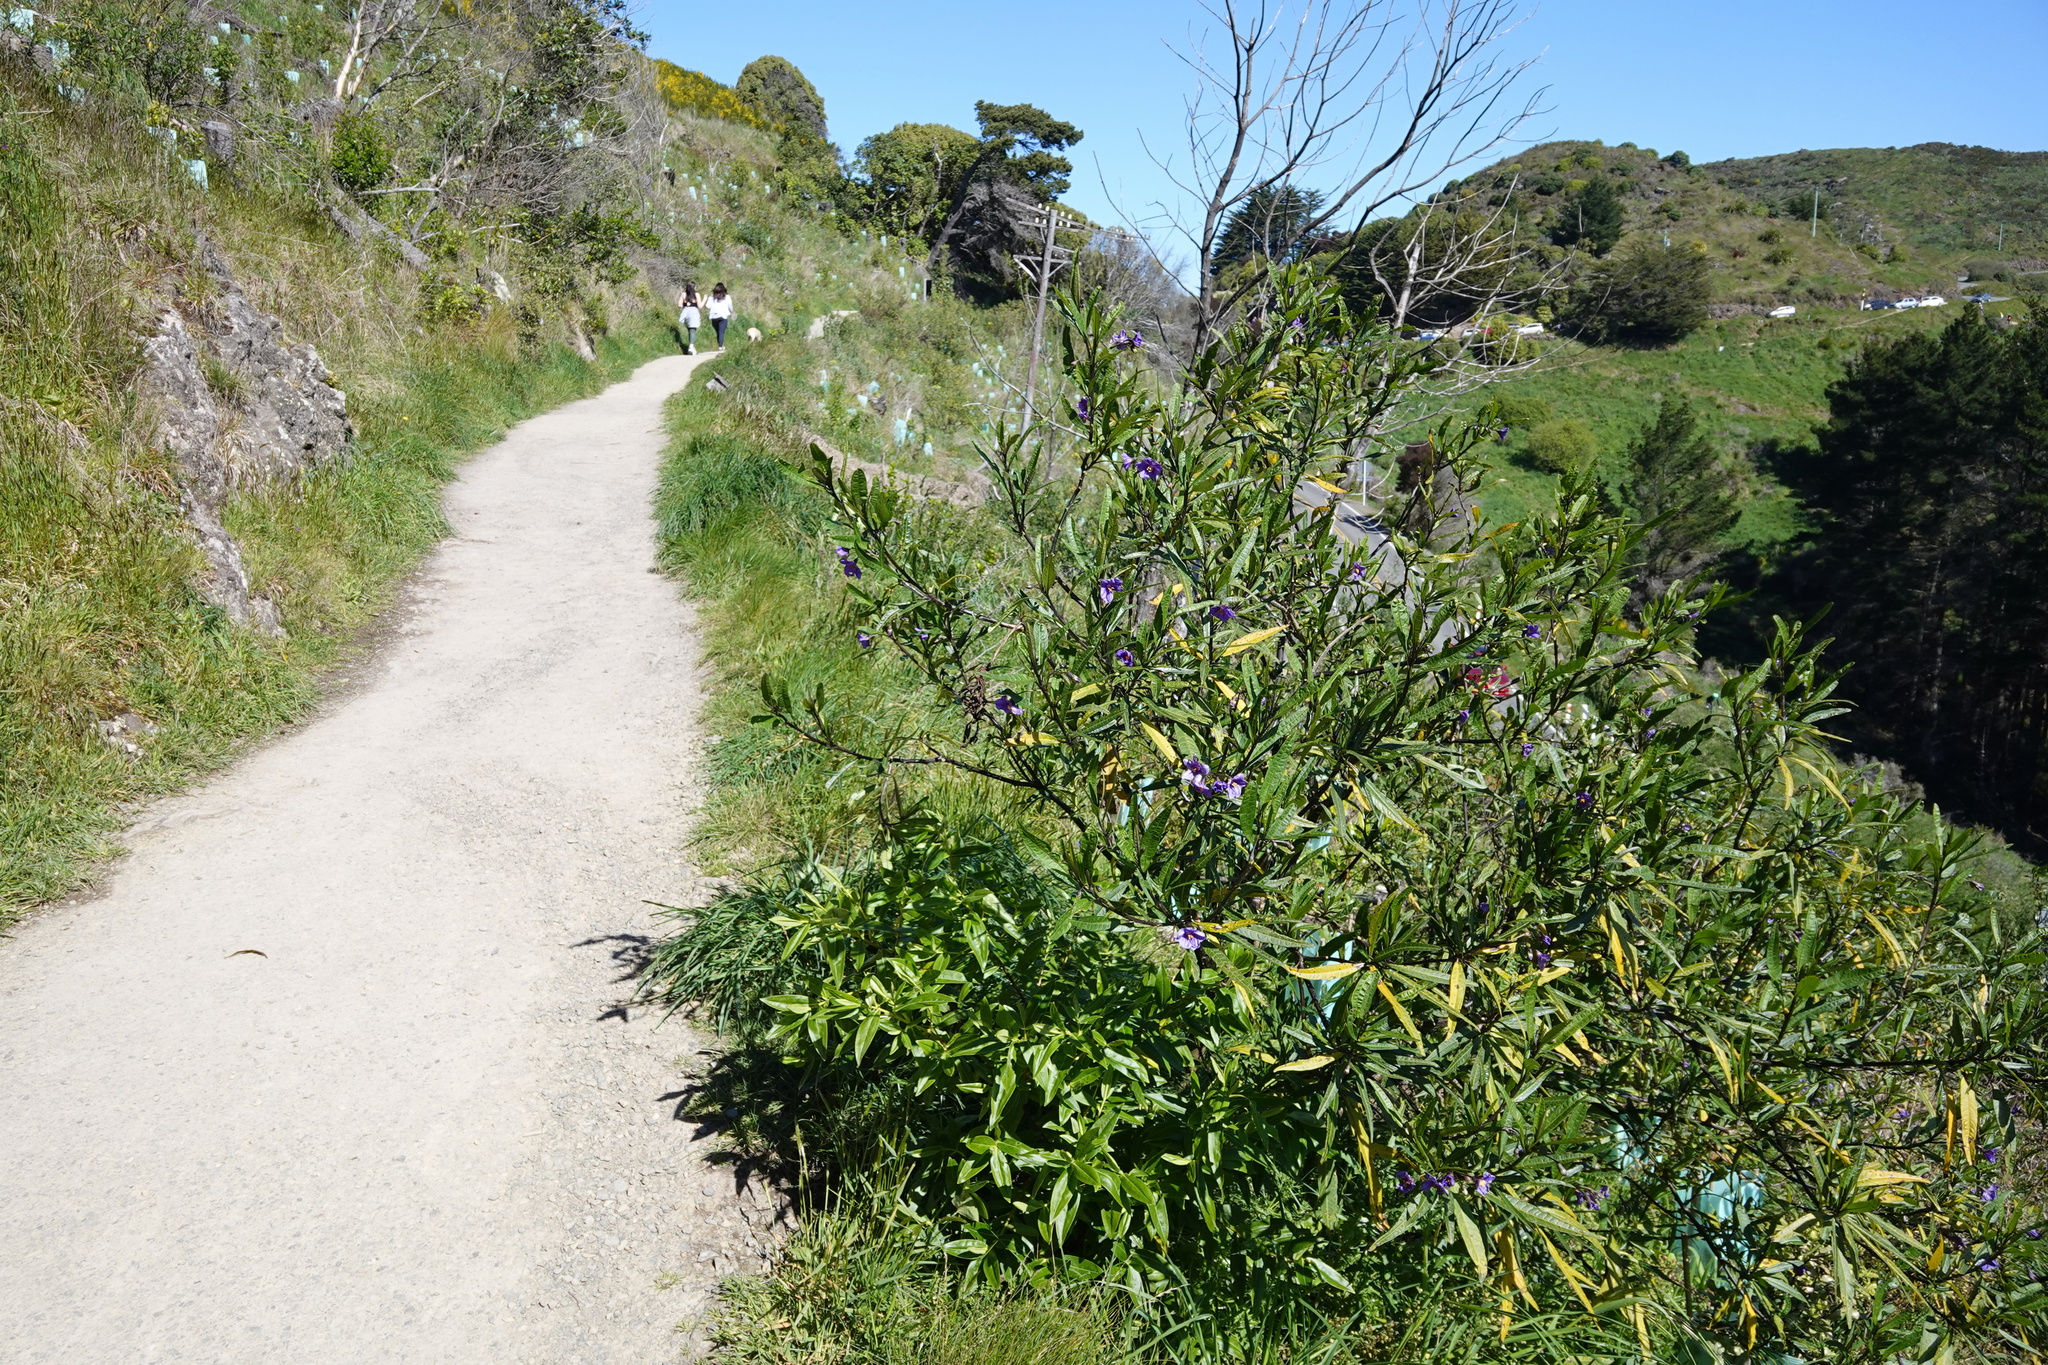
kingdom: Plantae
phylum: Tracheophyta
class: Magnoliopsida
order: Solanales
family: Solanaceae
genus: Solanum
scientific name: Solanum laciniatum
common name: Kangaroo-apple
